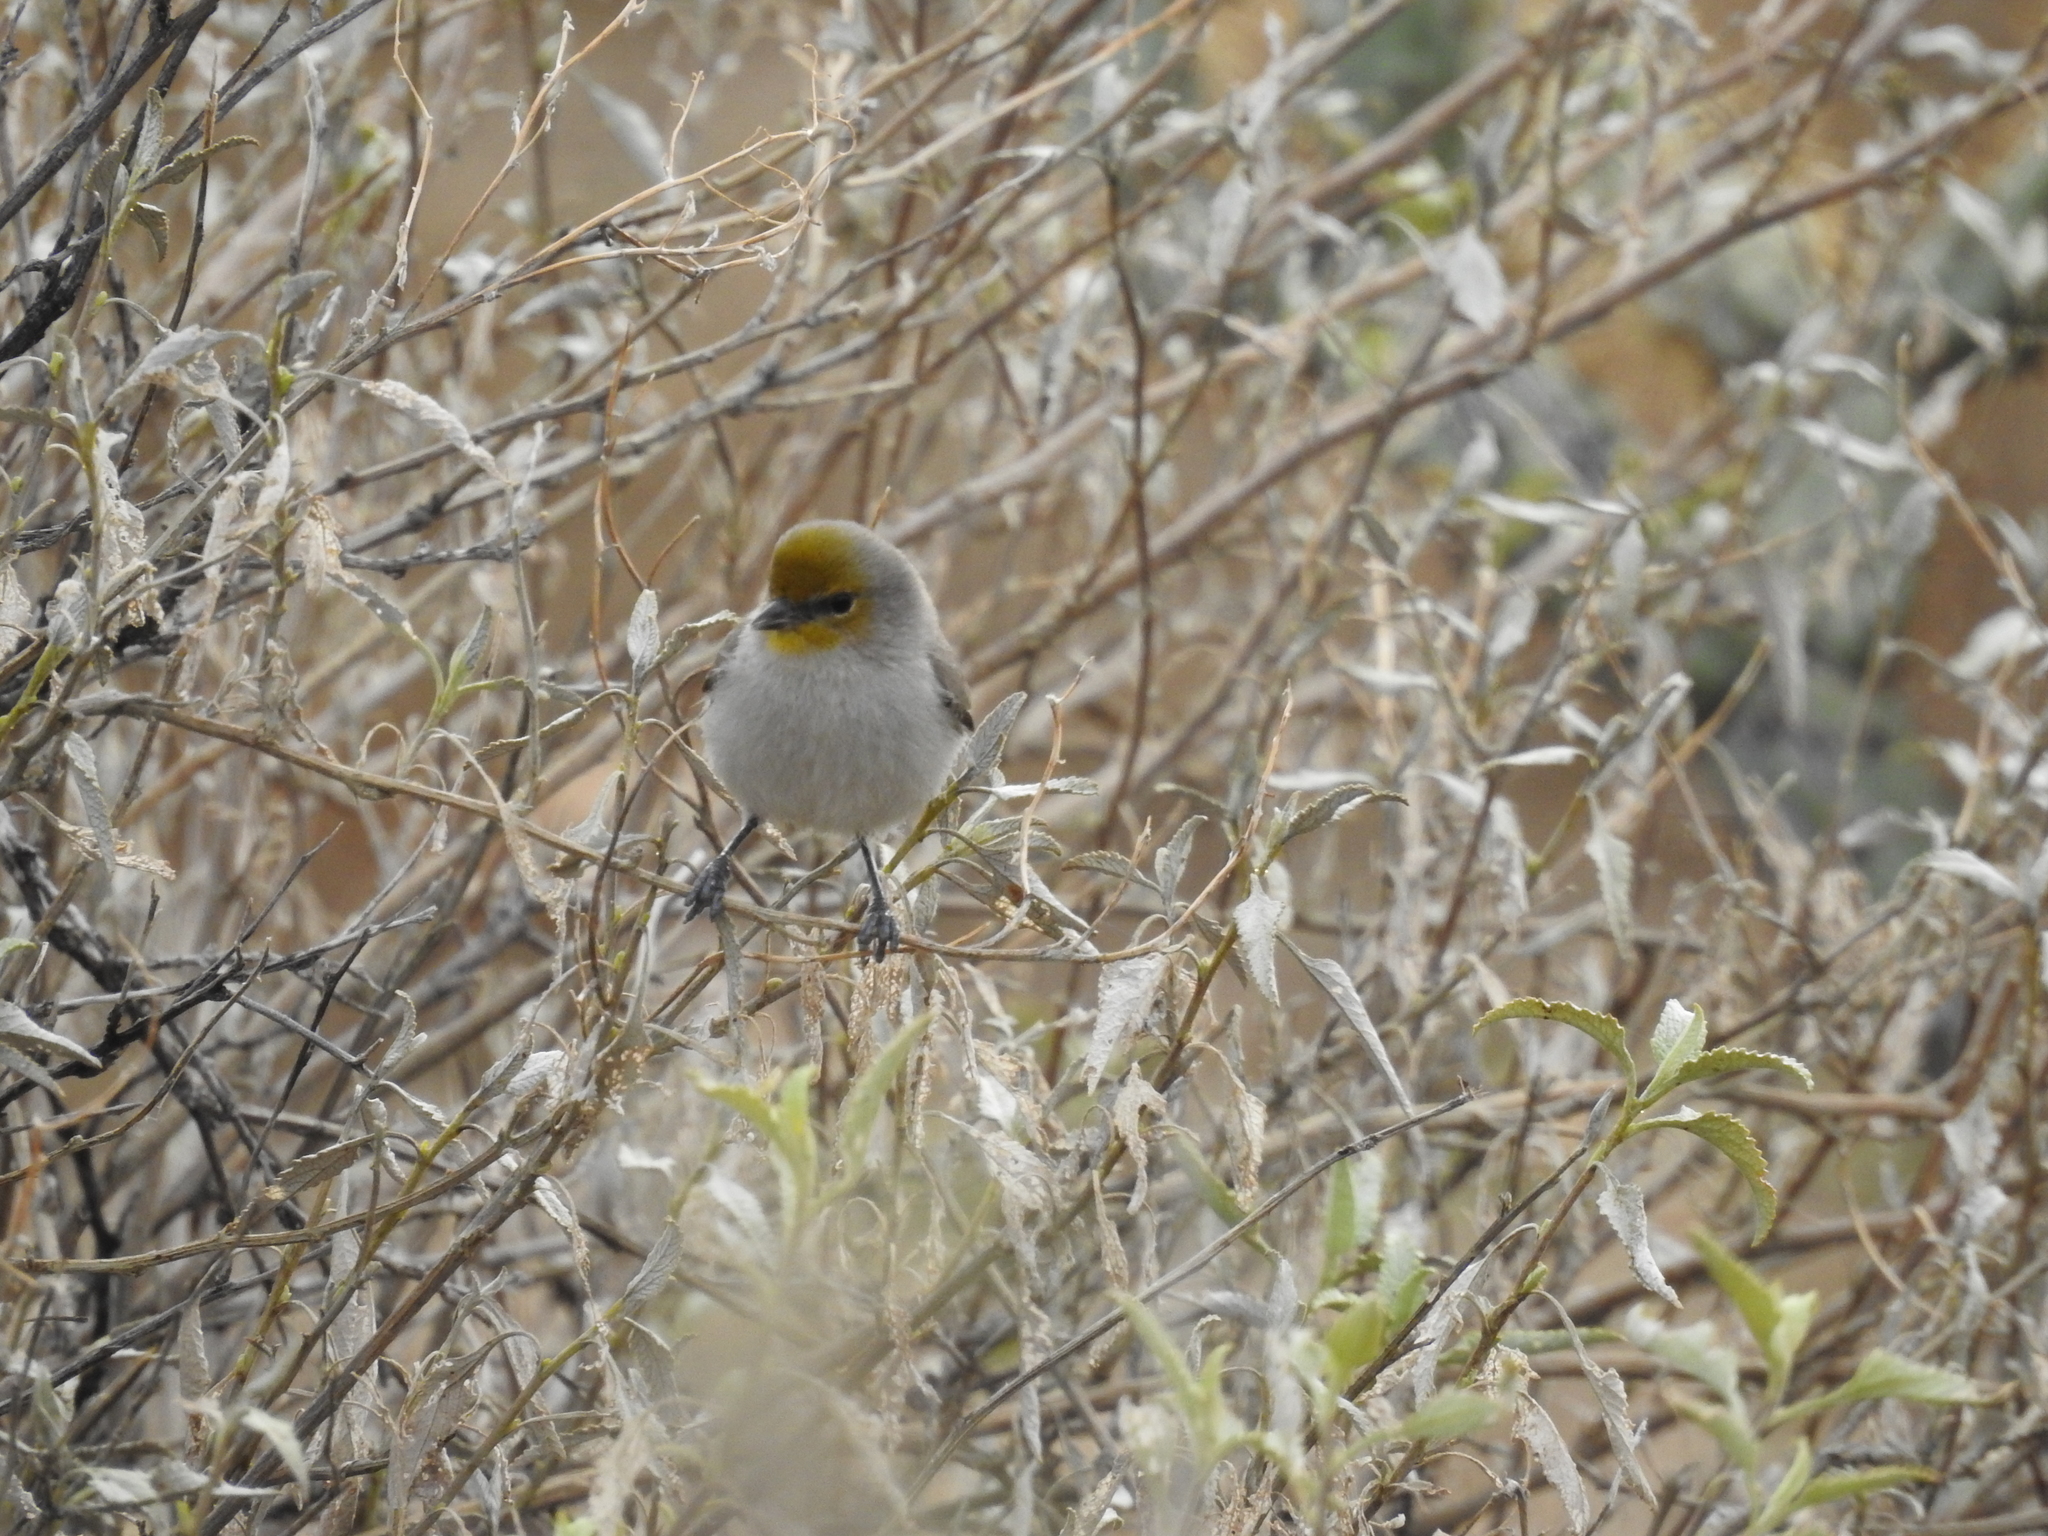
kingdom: Animalia
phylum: Chordata
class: Aves
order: Passeriformes
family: Remizidae
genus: Auriparus
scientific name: Auriparus flaviceps
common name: Verdin
